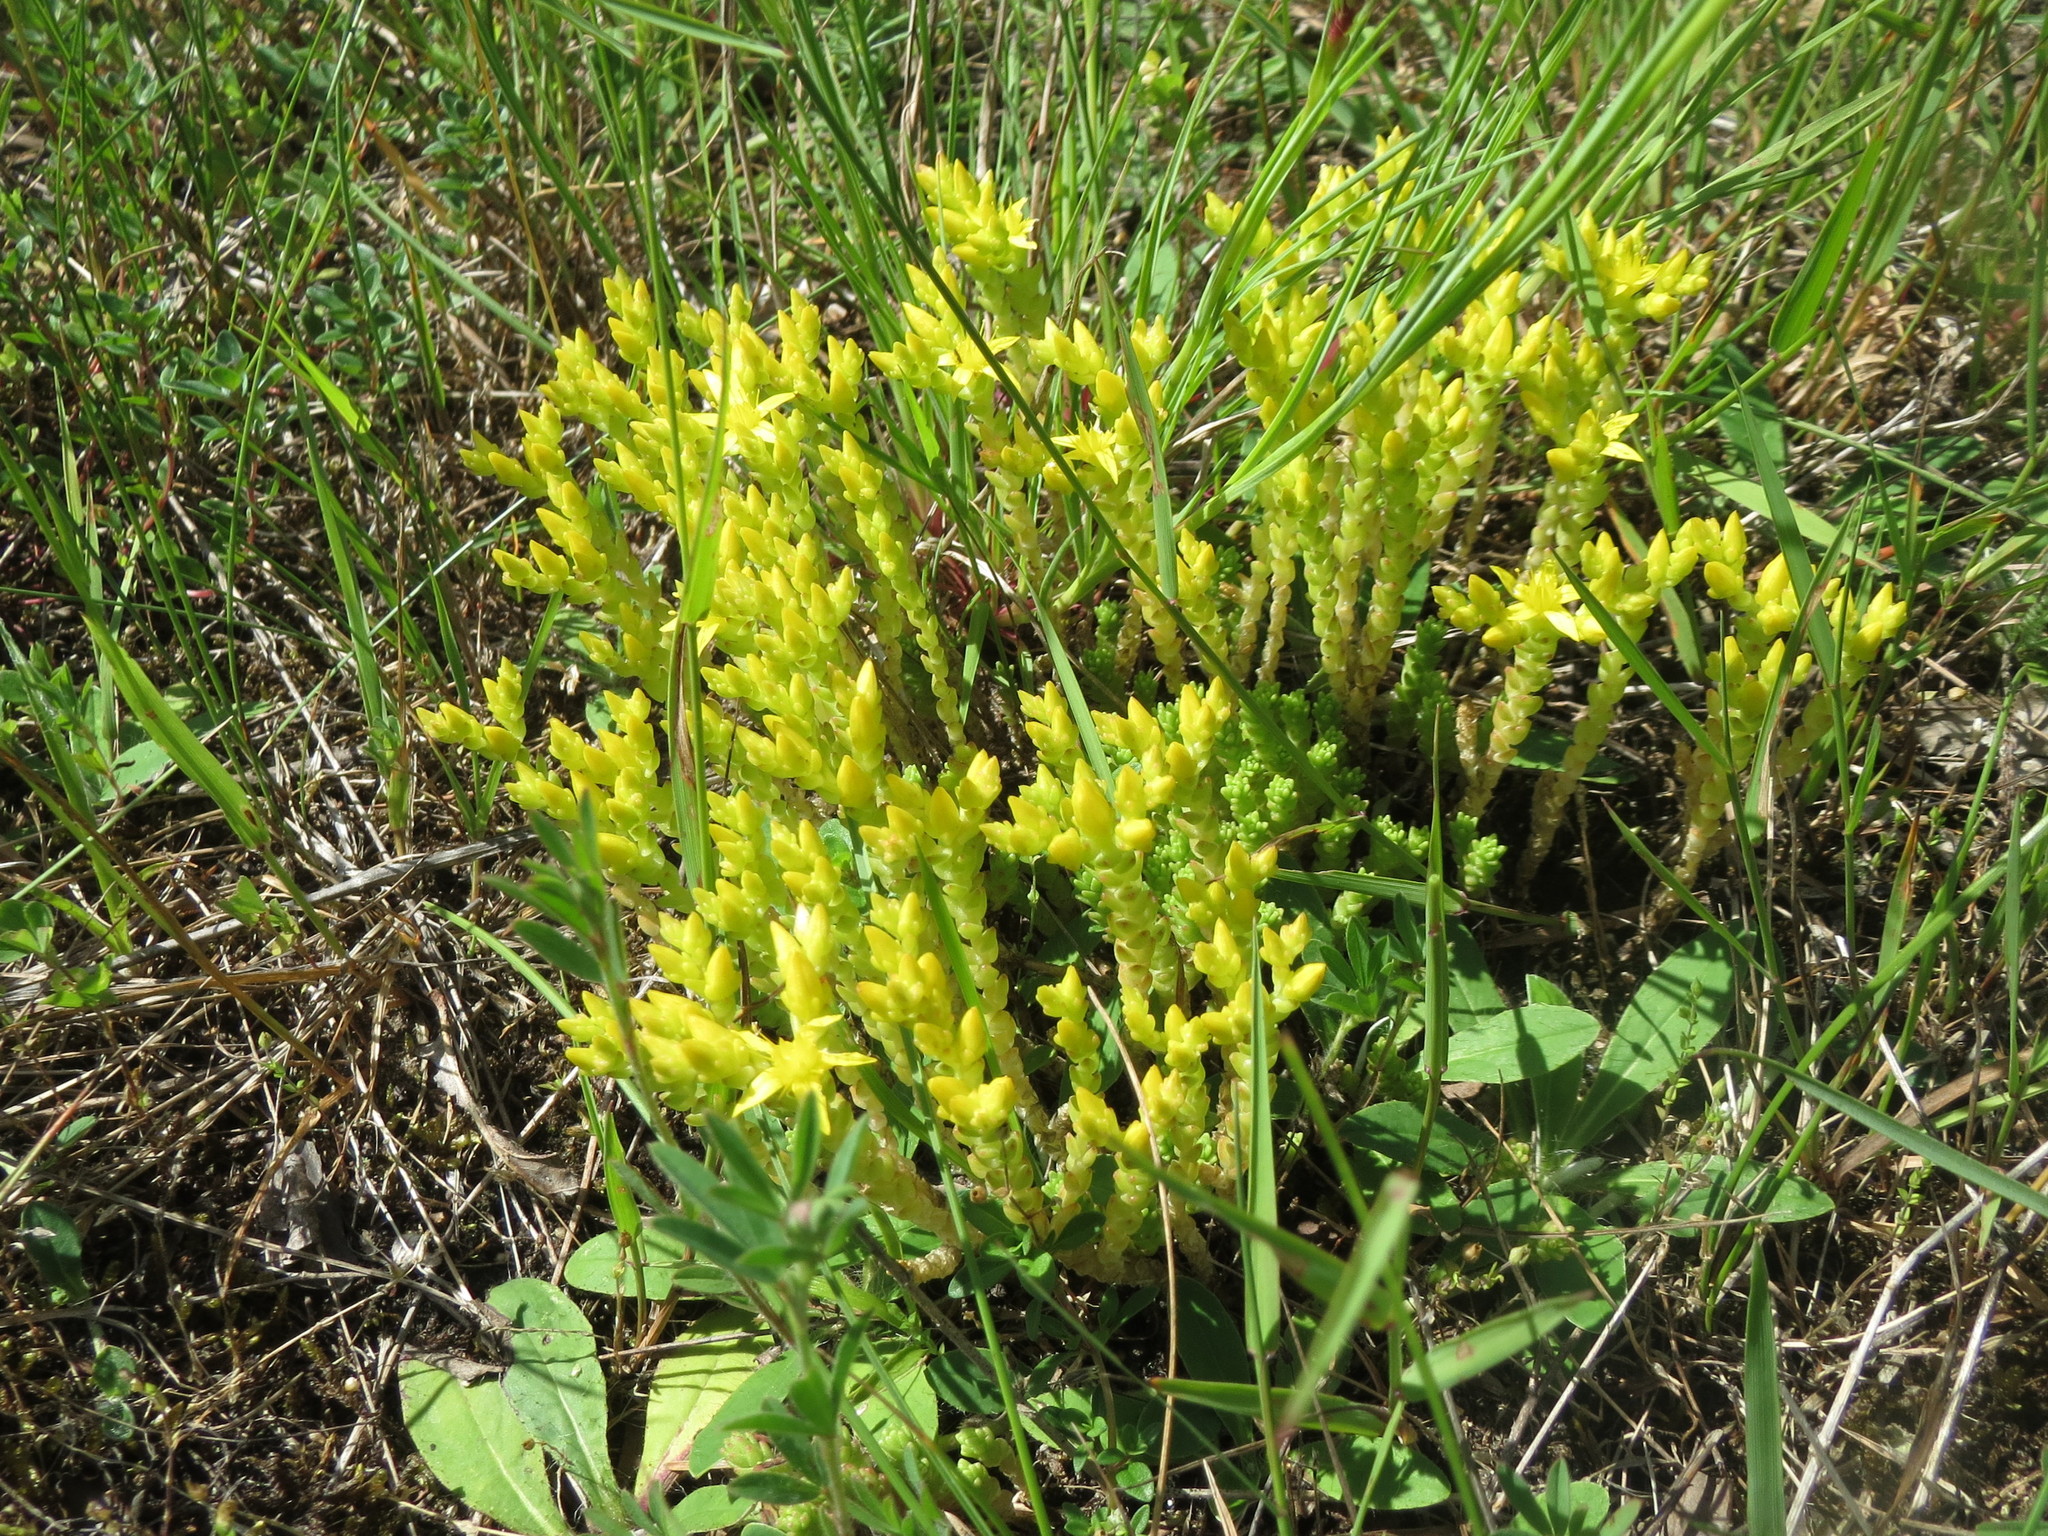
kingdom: Plantae
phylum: Tracheophyta
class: Magnoliopsida
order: Saxifragales
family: Crassulaceae
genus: Sedum
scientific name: Sedum acre
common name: Biting stonecrop
